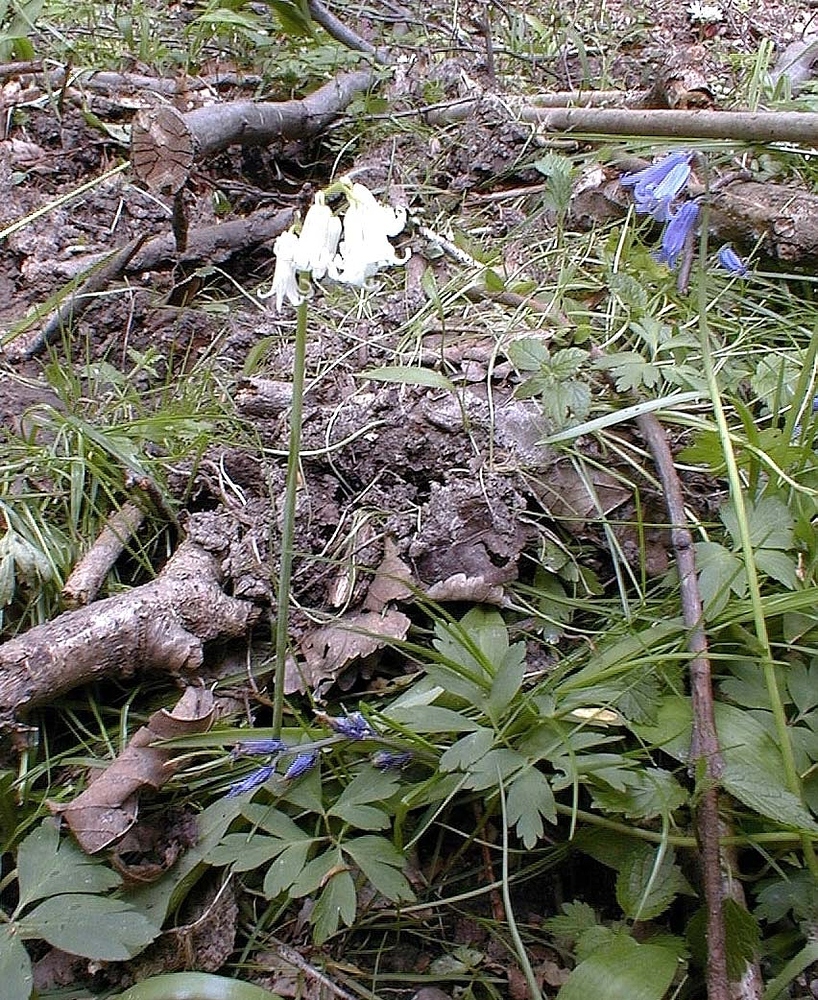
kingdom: Plantae
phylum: Tracheophyta
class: Liliopsida
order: Asparagales
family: Asparagaceae
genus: Hyacinthoides
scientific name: Hyacinthoides non-scripta
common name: Bluebell
